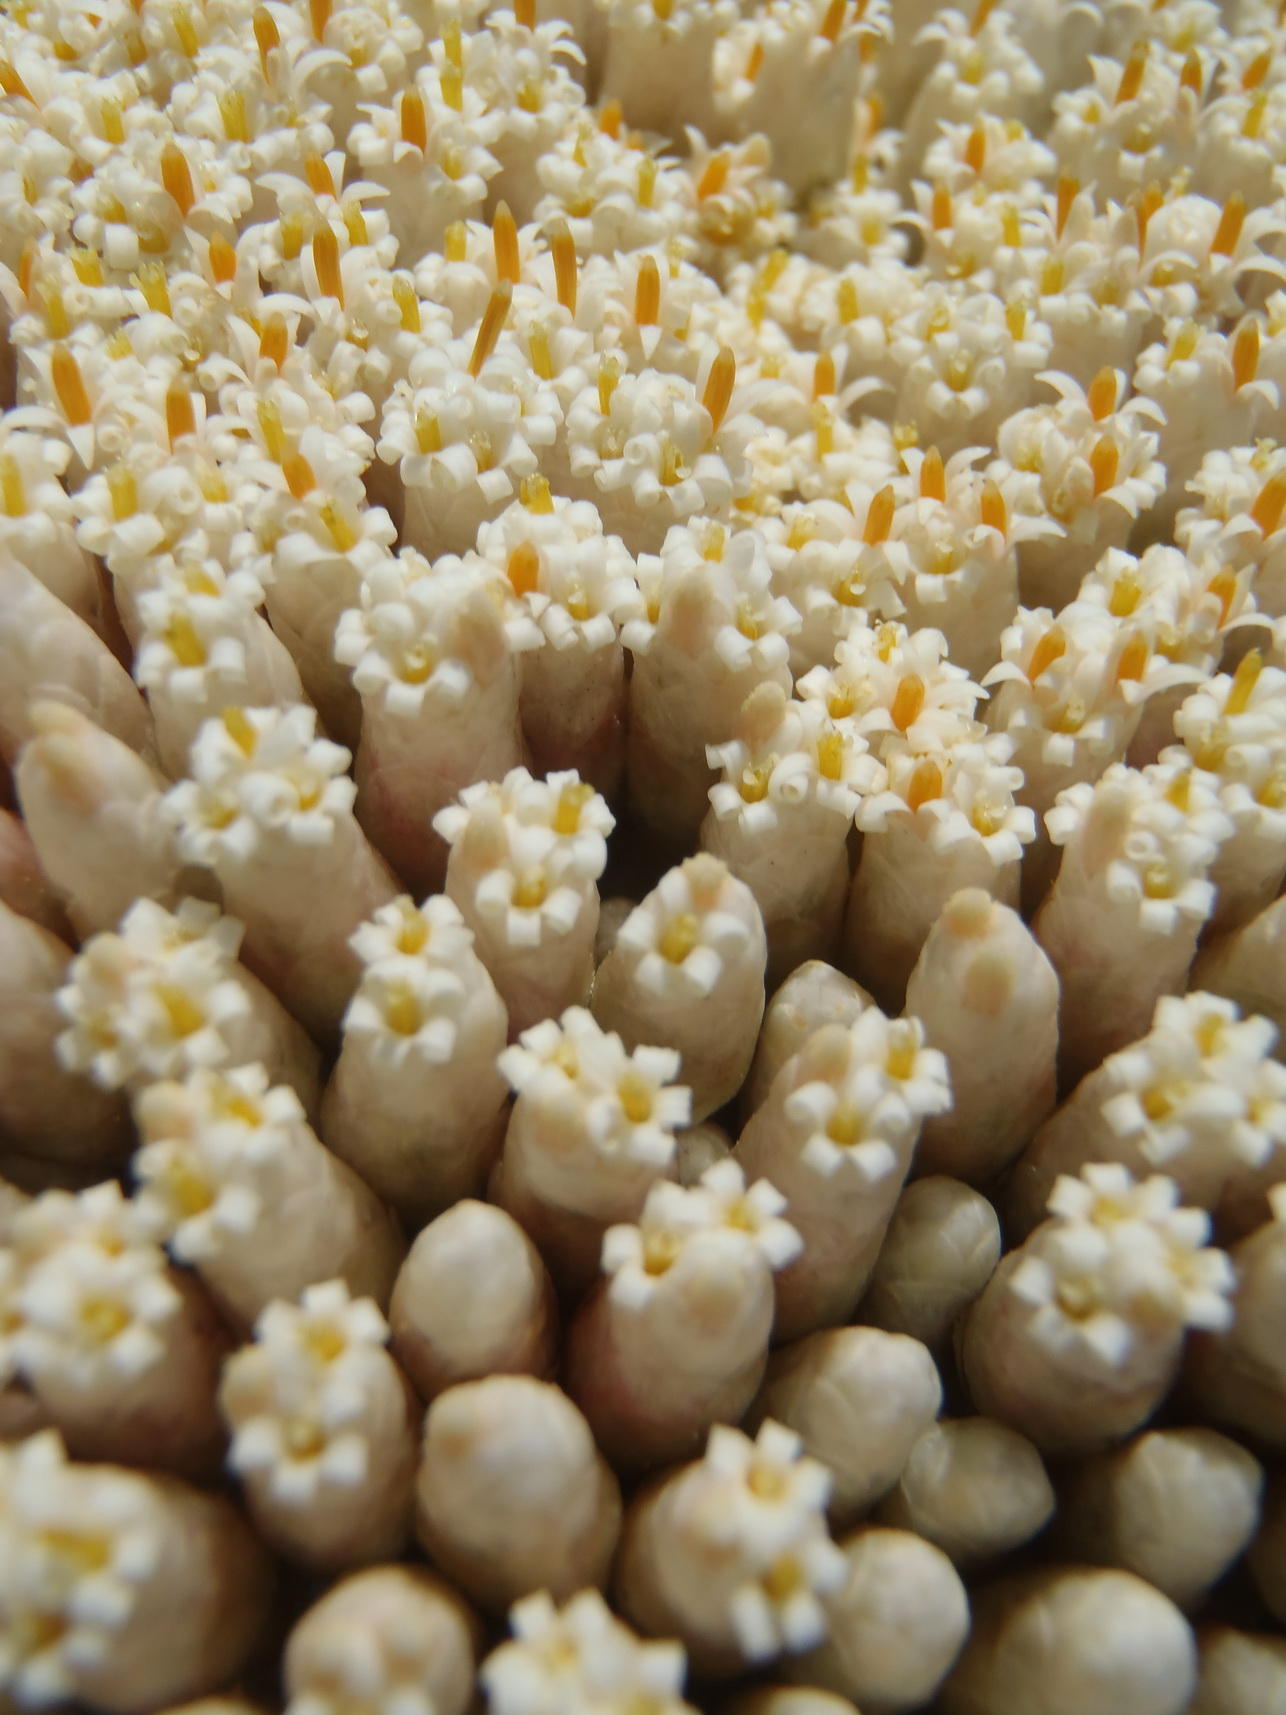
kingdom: Plantae
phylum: Tracheophyta
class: Magnoliopsida
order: Asterales
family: Asteraceae
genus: Syncarpha
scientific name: Syncarpha milleflora
